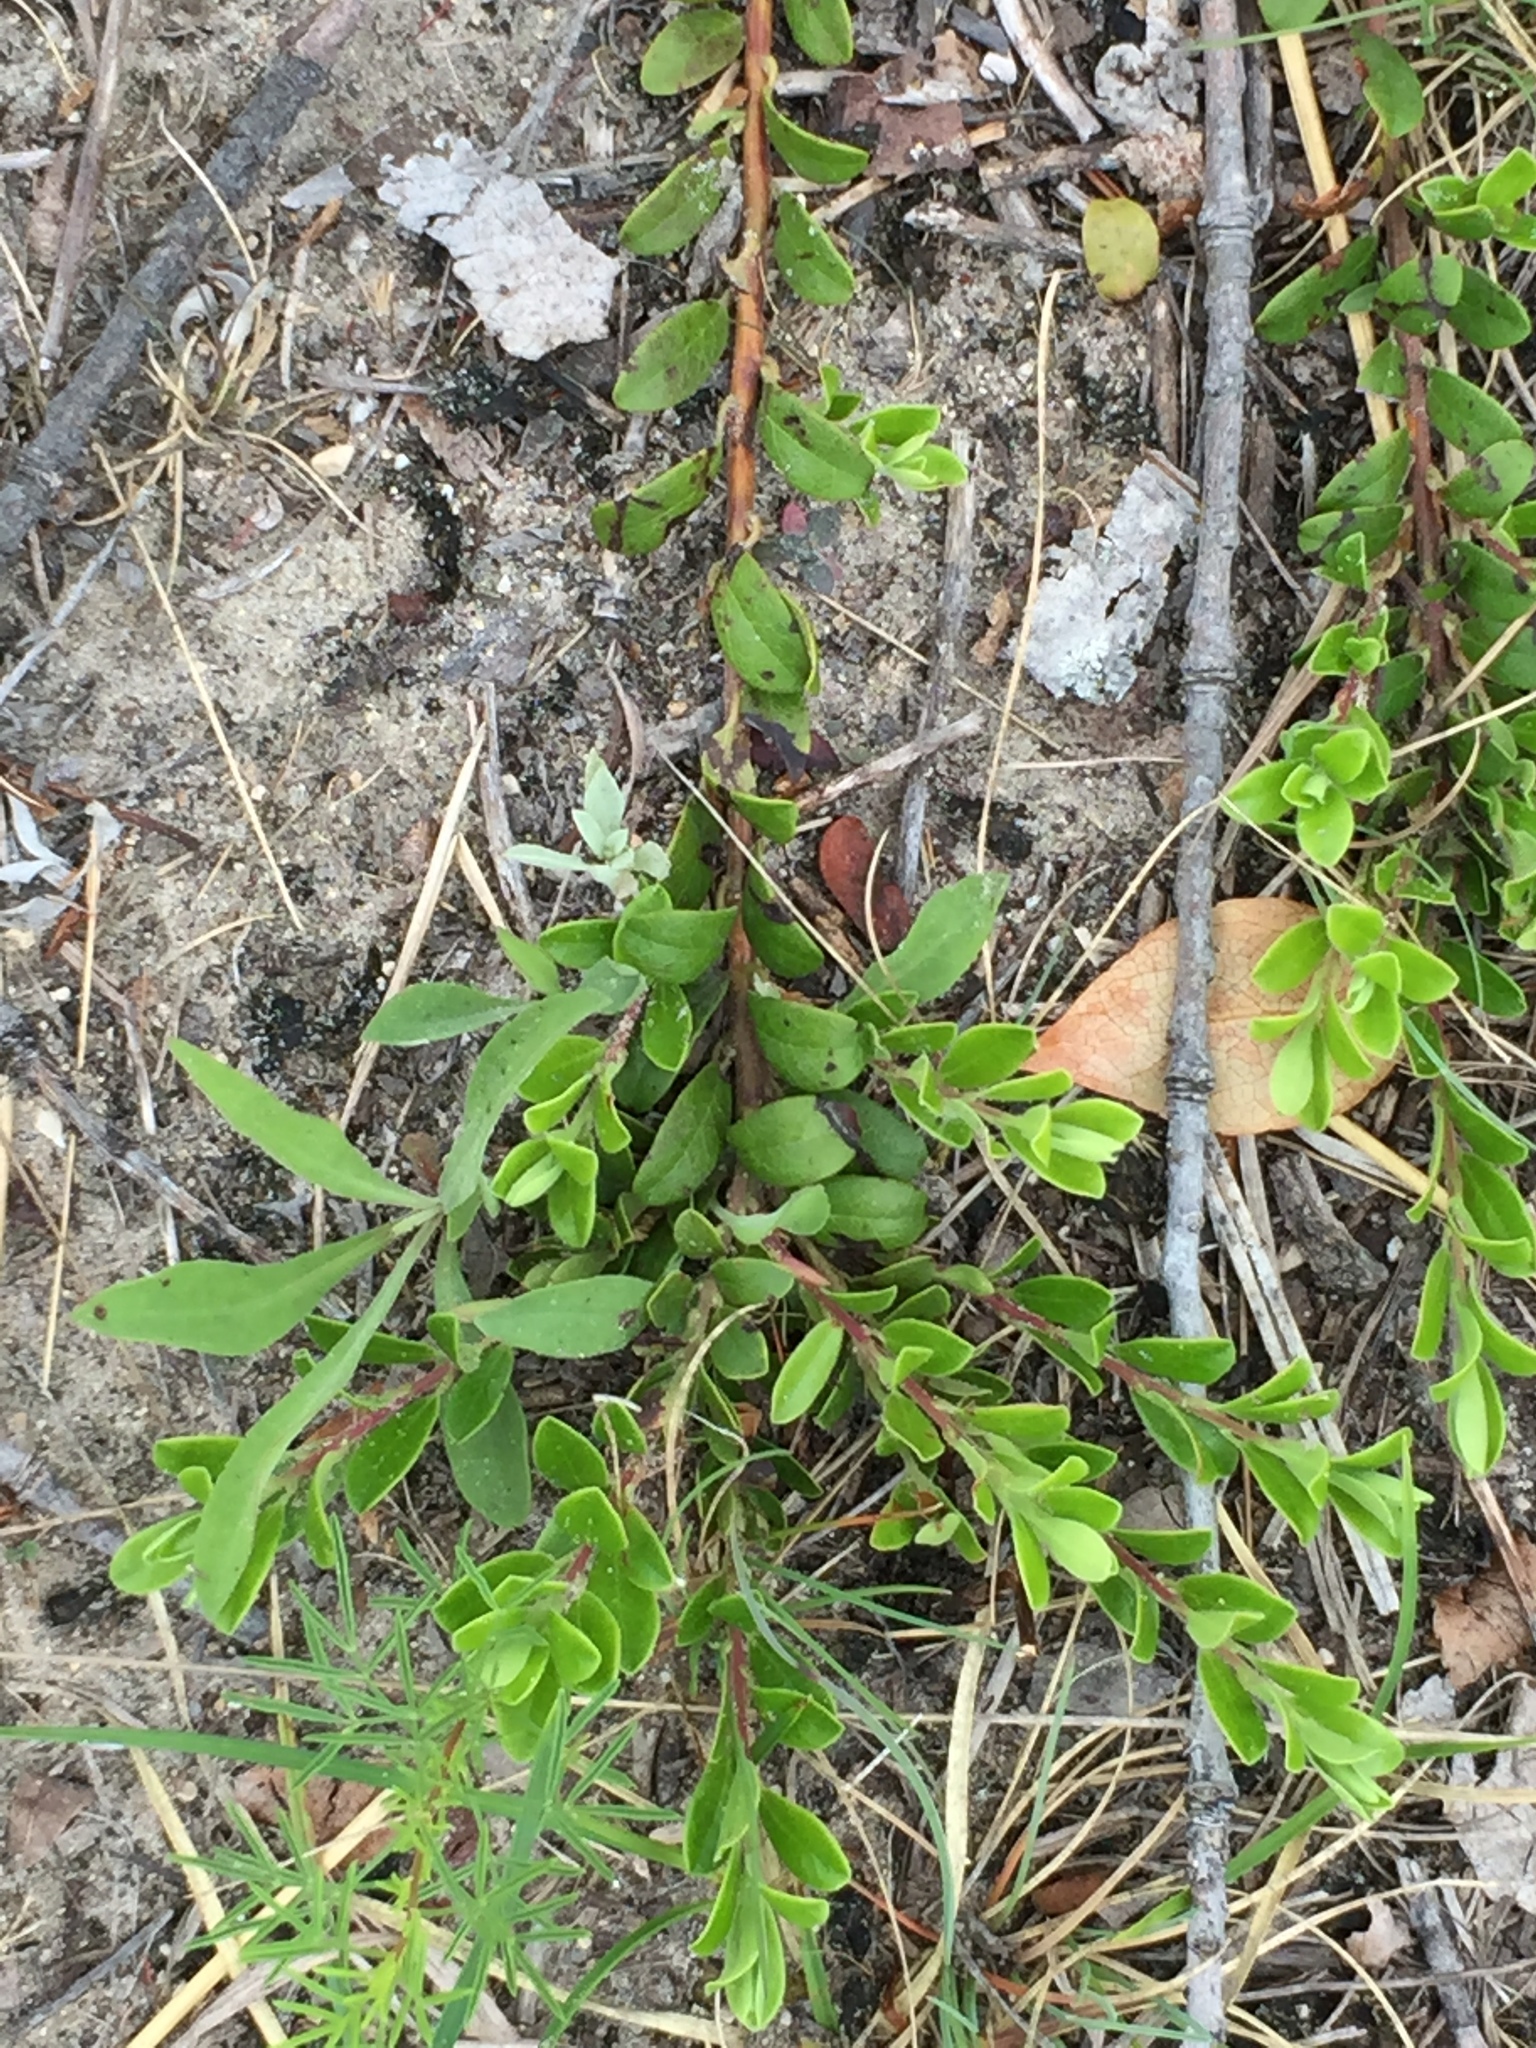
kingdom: Plantae
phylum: Tracheophyta
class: Magnoliopsida
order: Ericales
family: Ericaceae
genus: Arctostaphylos
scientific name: Arctostaphylos uva-ursi
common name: Bearberry
